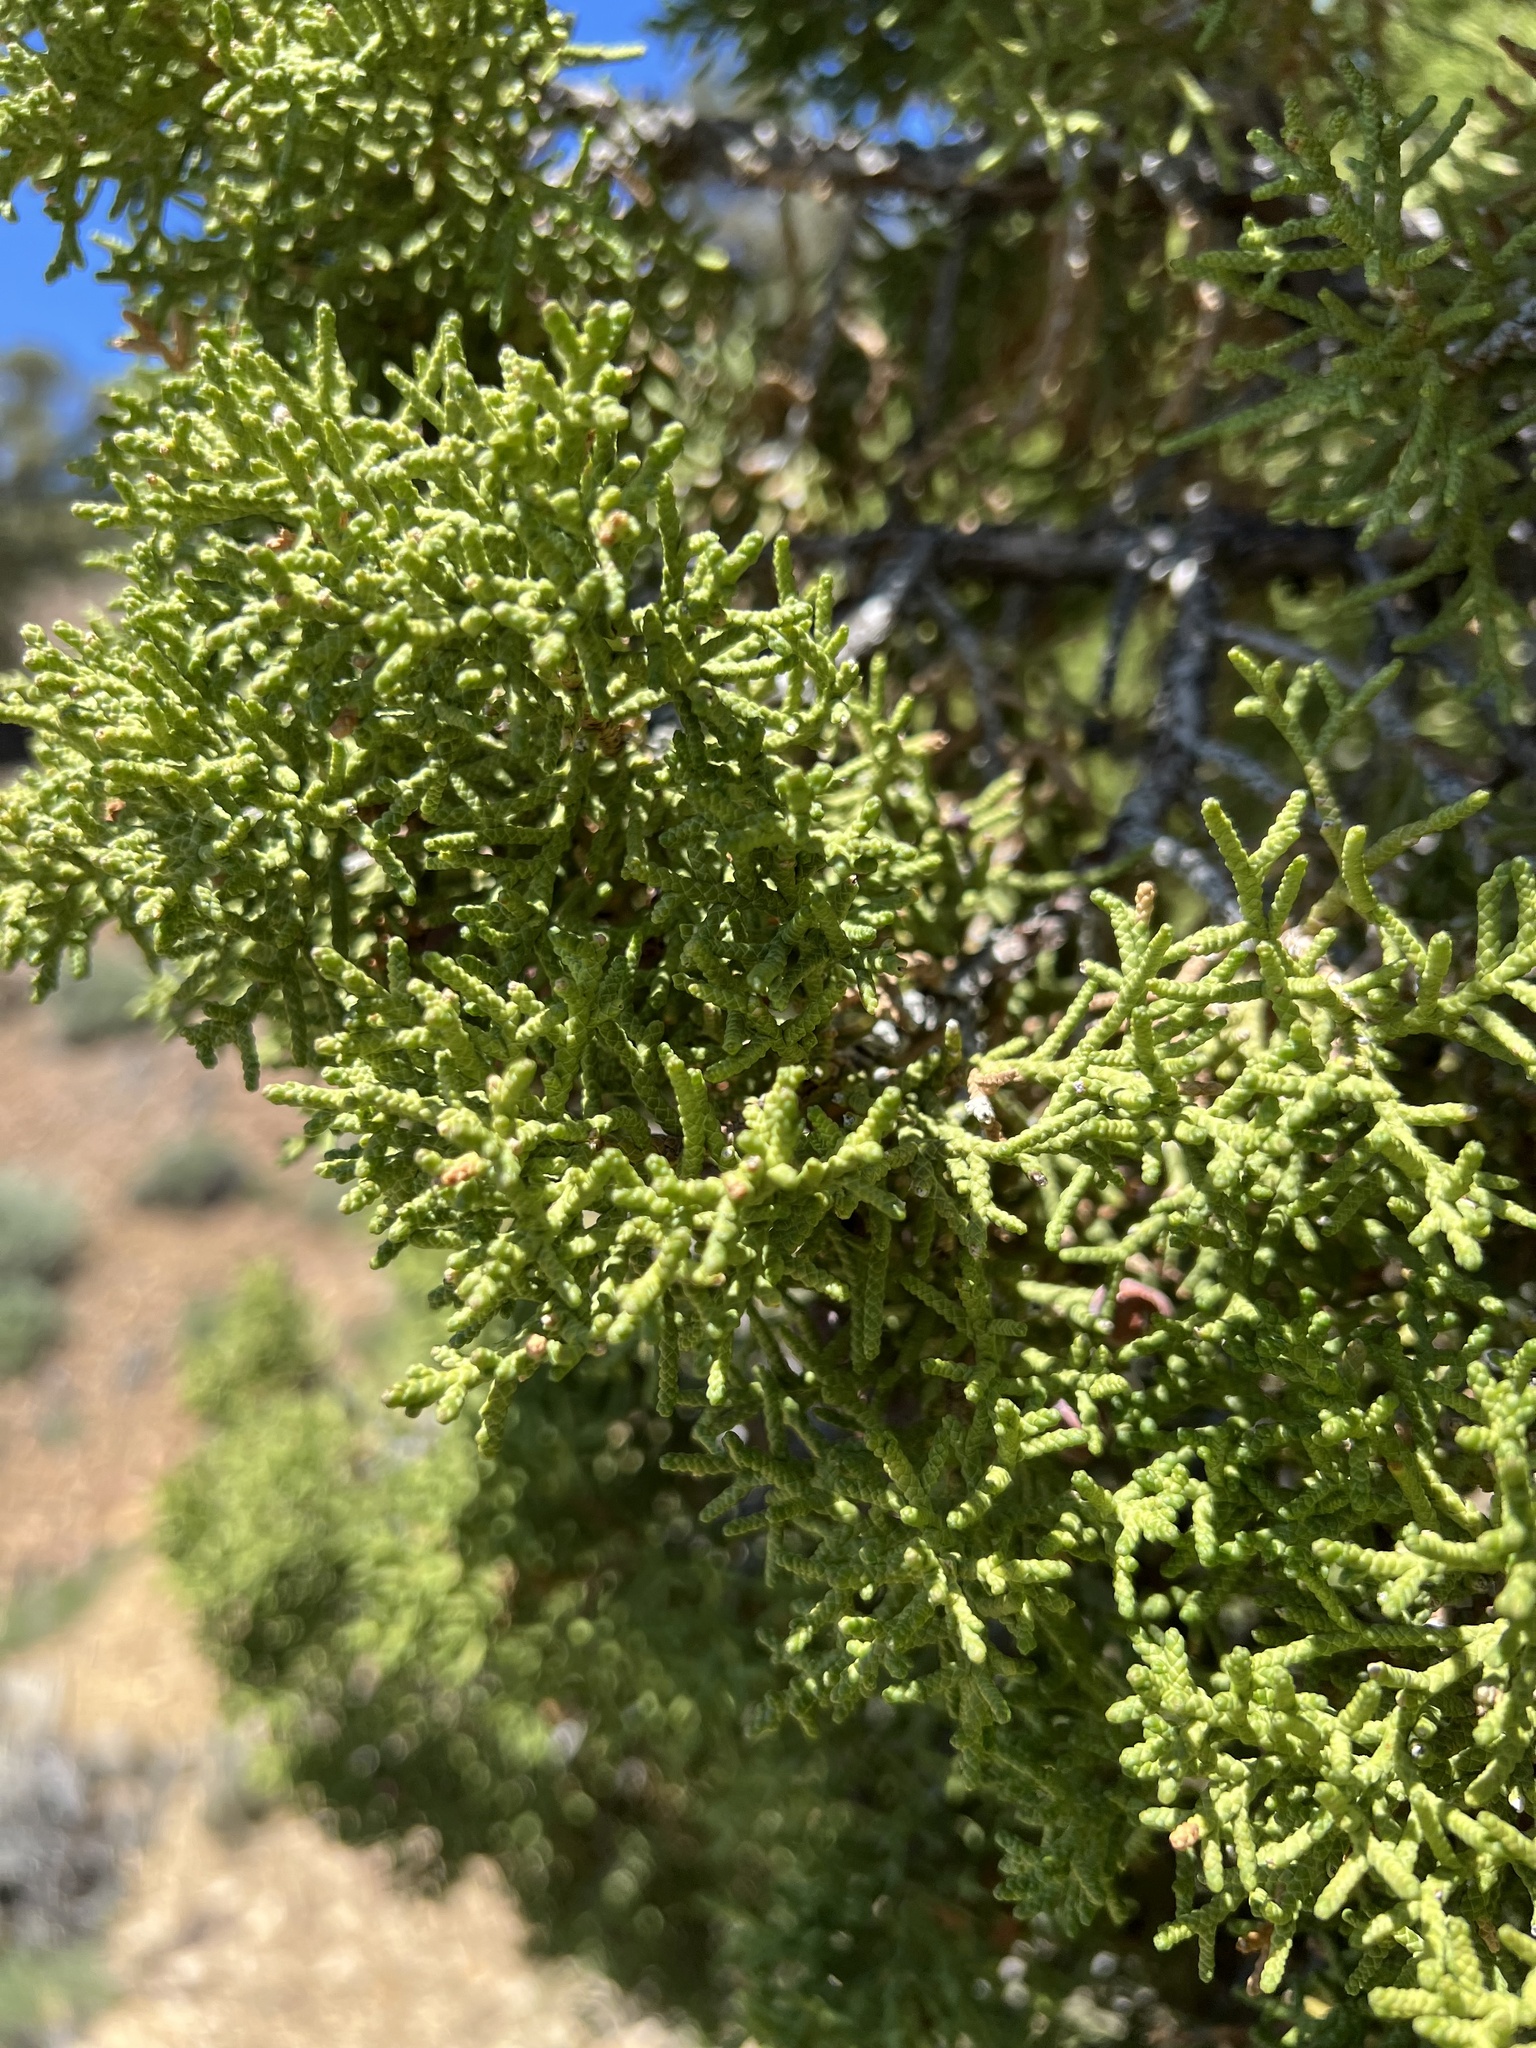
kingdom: Plantae
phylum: Tracheophyta
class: Pinopsida
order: Pinales
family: Cupressaceae
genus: Juniperus
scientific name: Juniperus osteosperma
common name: Utah juniper
